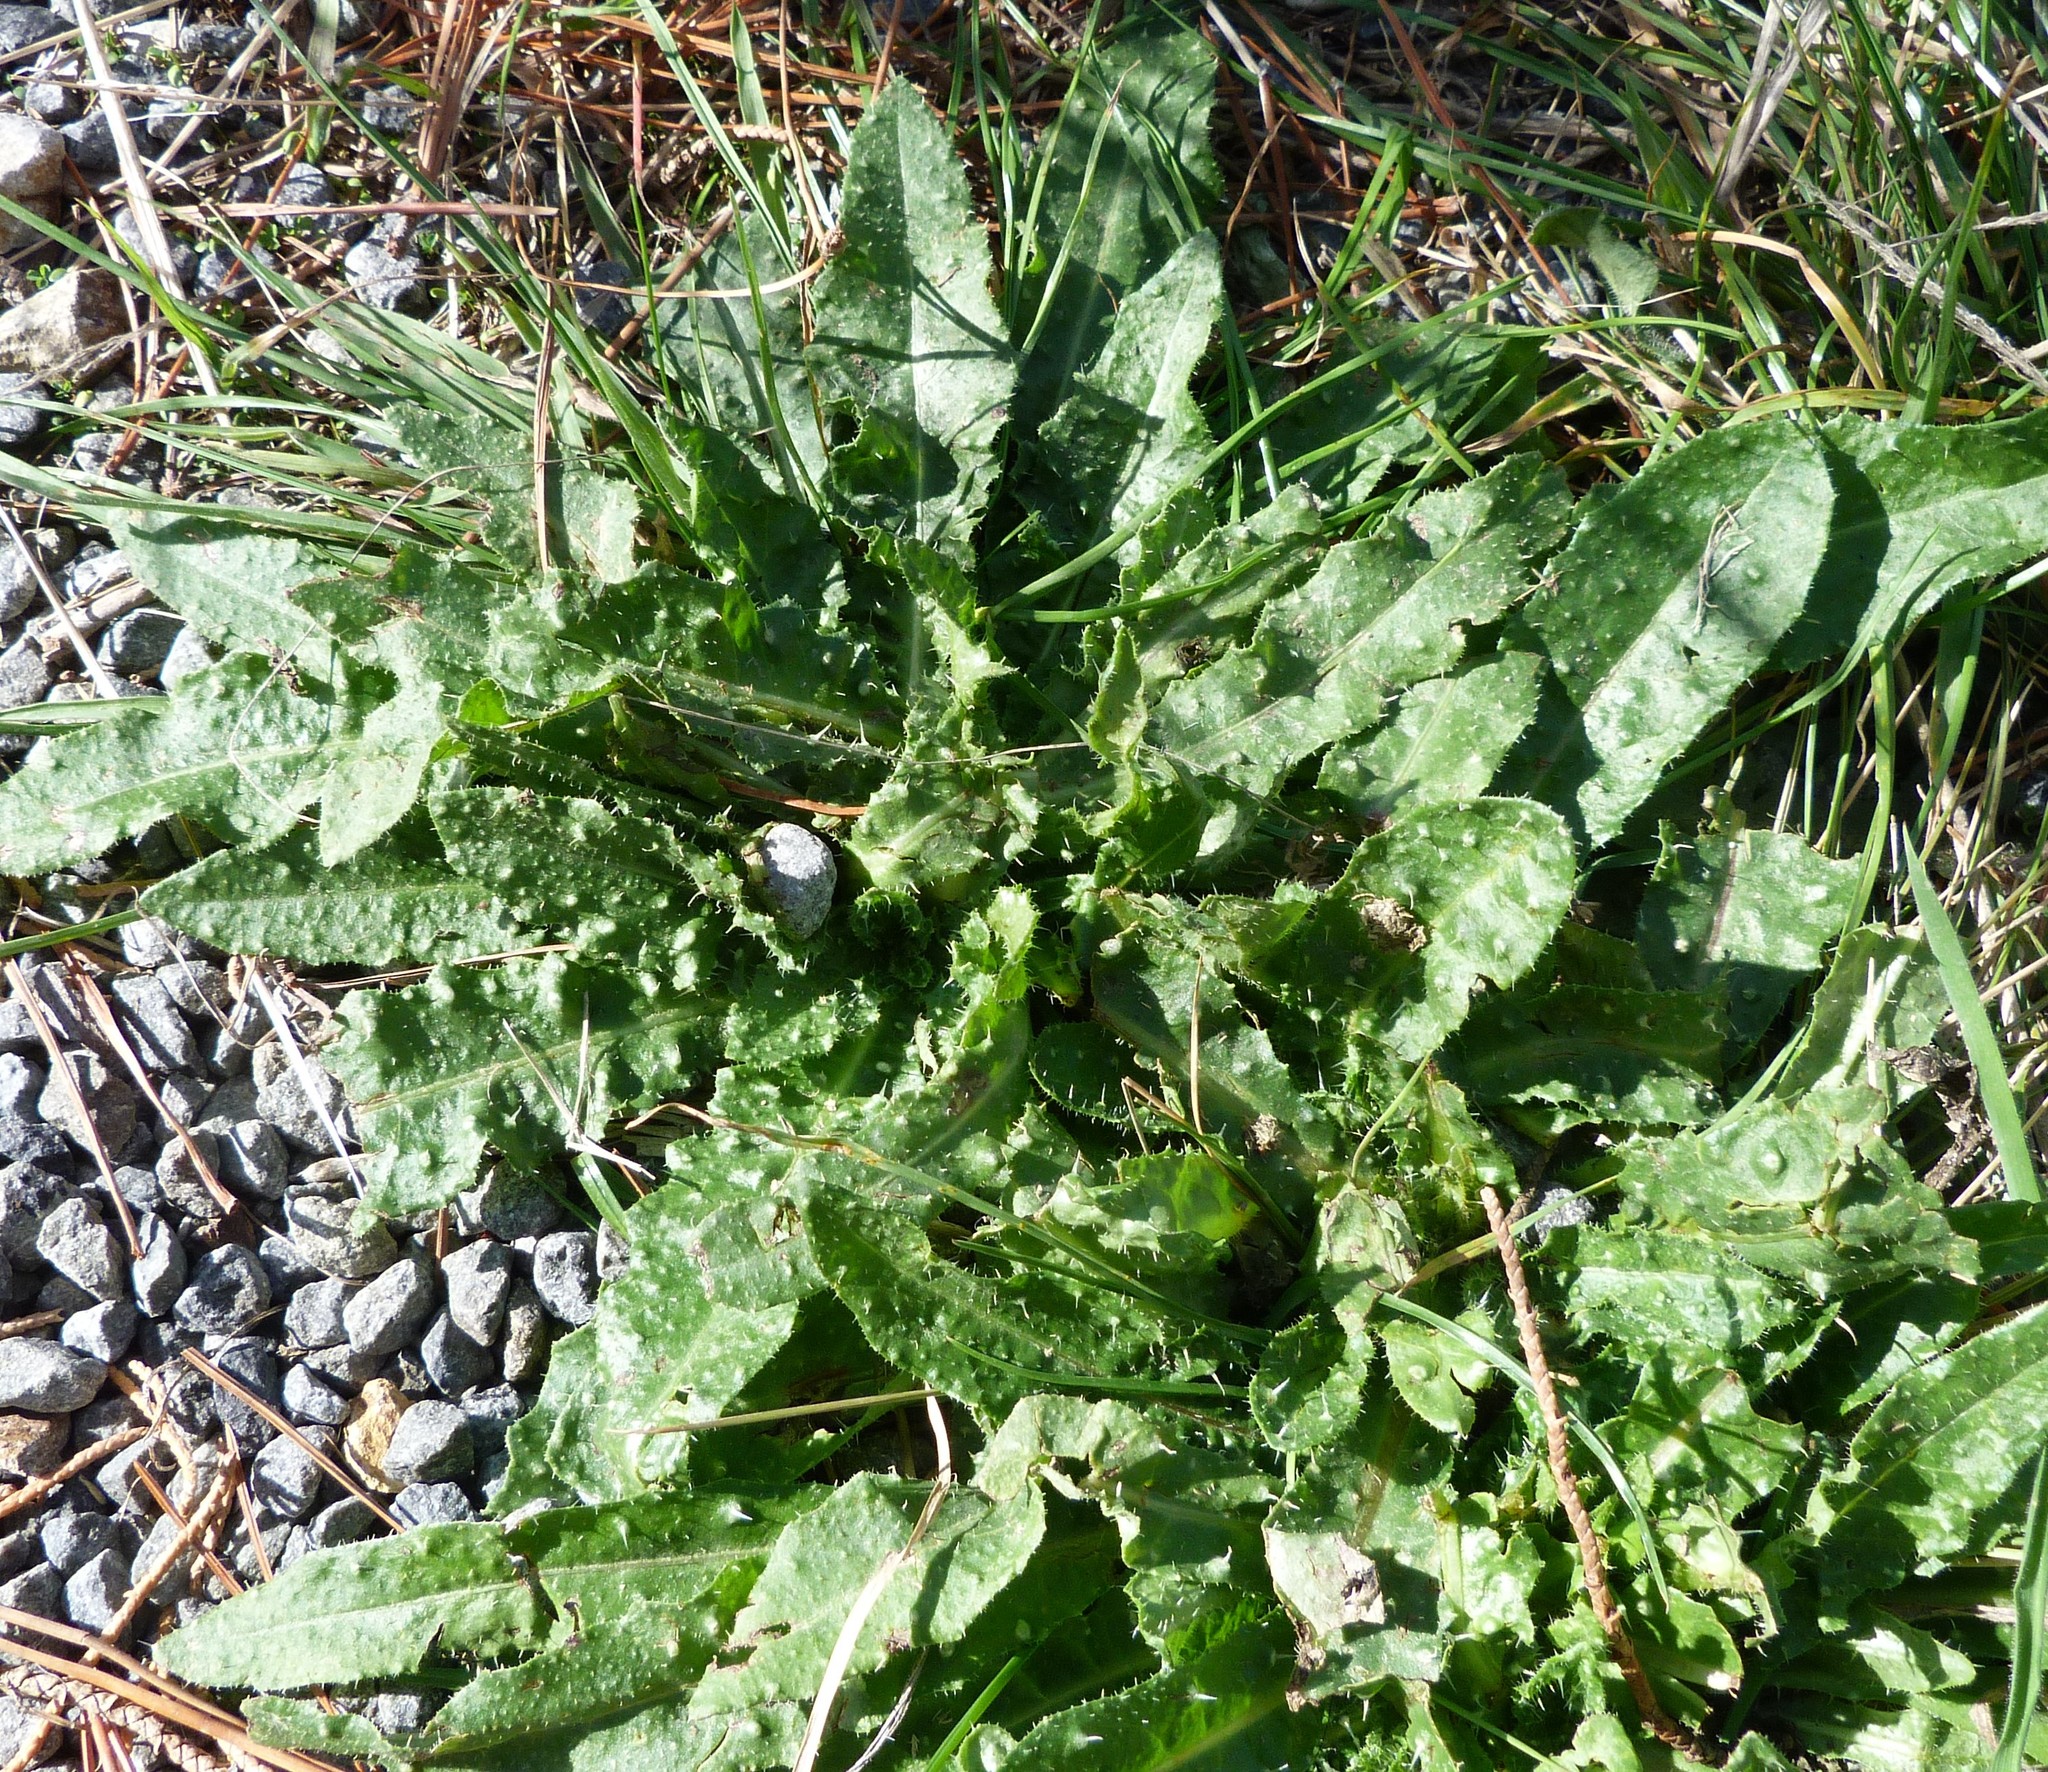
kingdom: Plantae
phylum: Tracheophyta
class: Magnoliopsida
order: Asterales
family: Asteraceae
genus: Helminthotheca
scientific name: Helminthotheca echioides
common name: Ox-tongue
